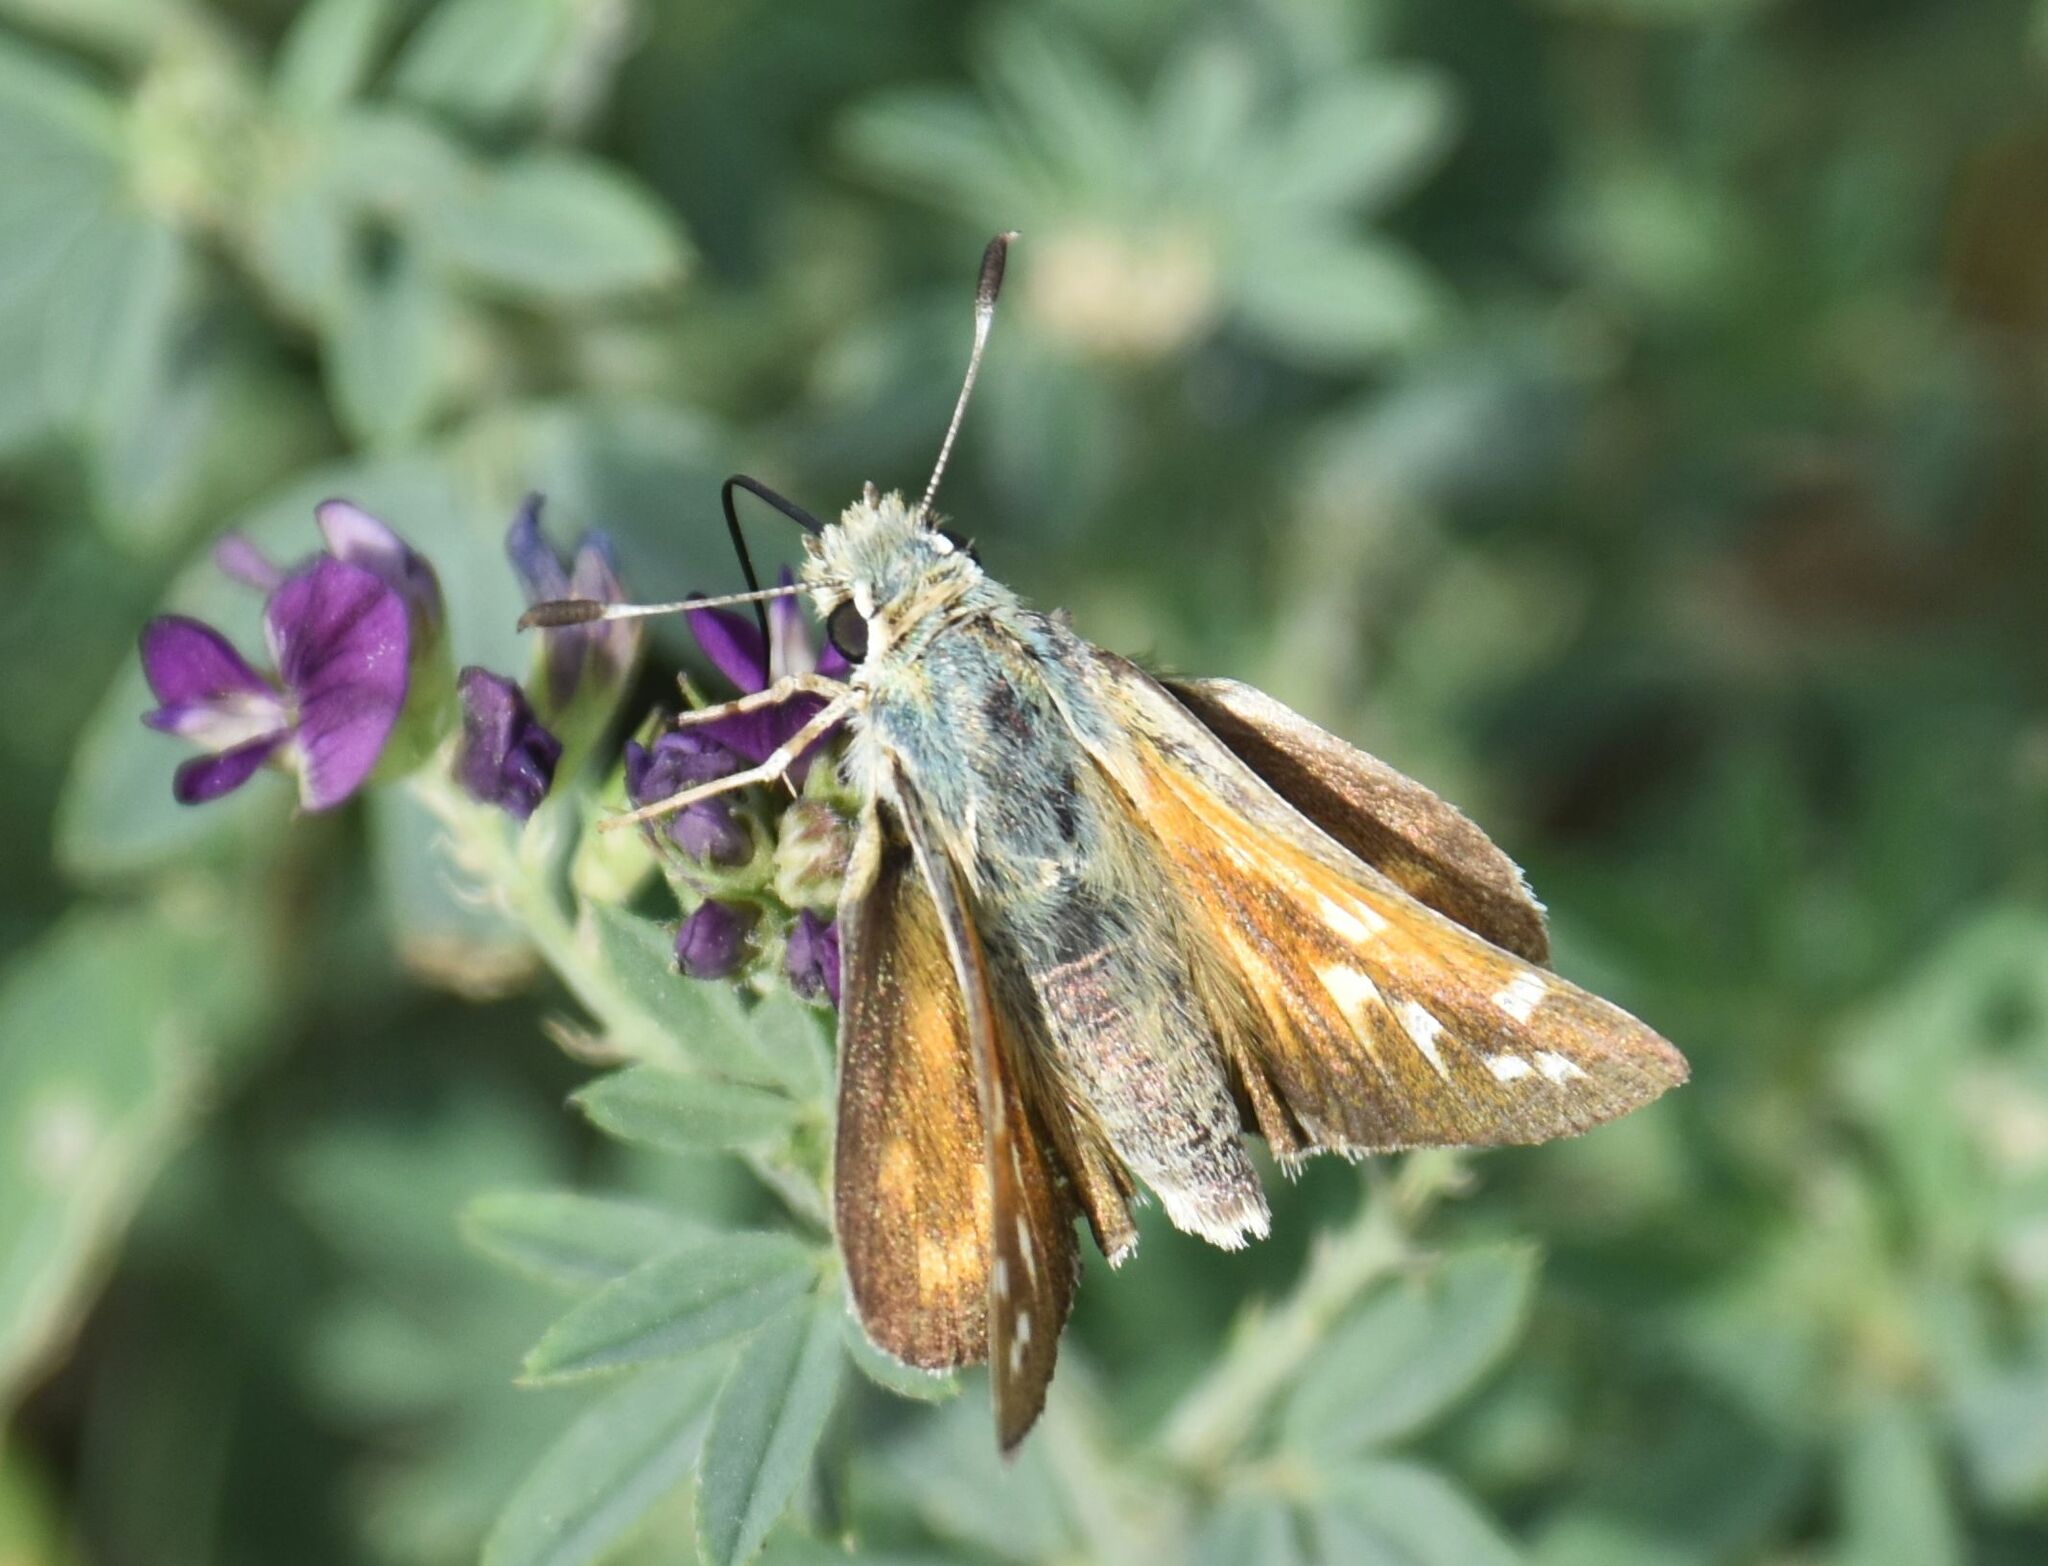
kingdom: Animalia
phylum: Arthropoda
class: Insecta
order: Lepidoptera
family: Hesperiidae
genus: Hesperia
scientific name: Hesperia comma
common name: Common branded skipper
